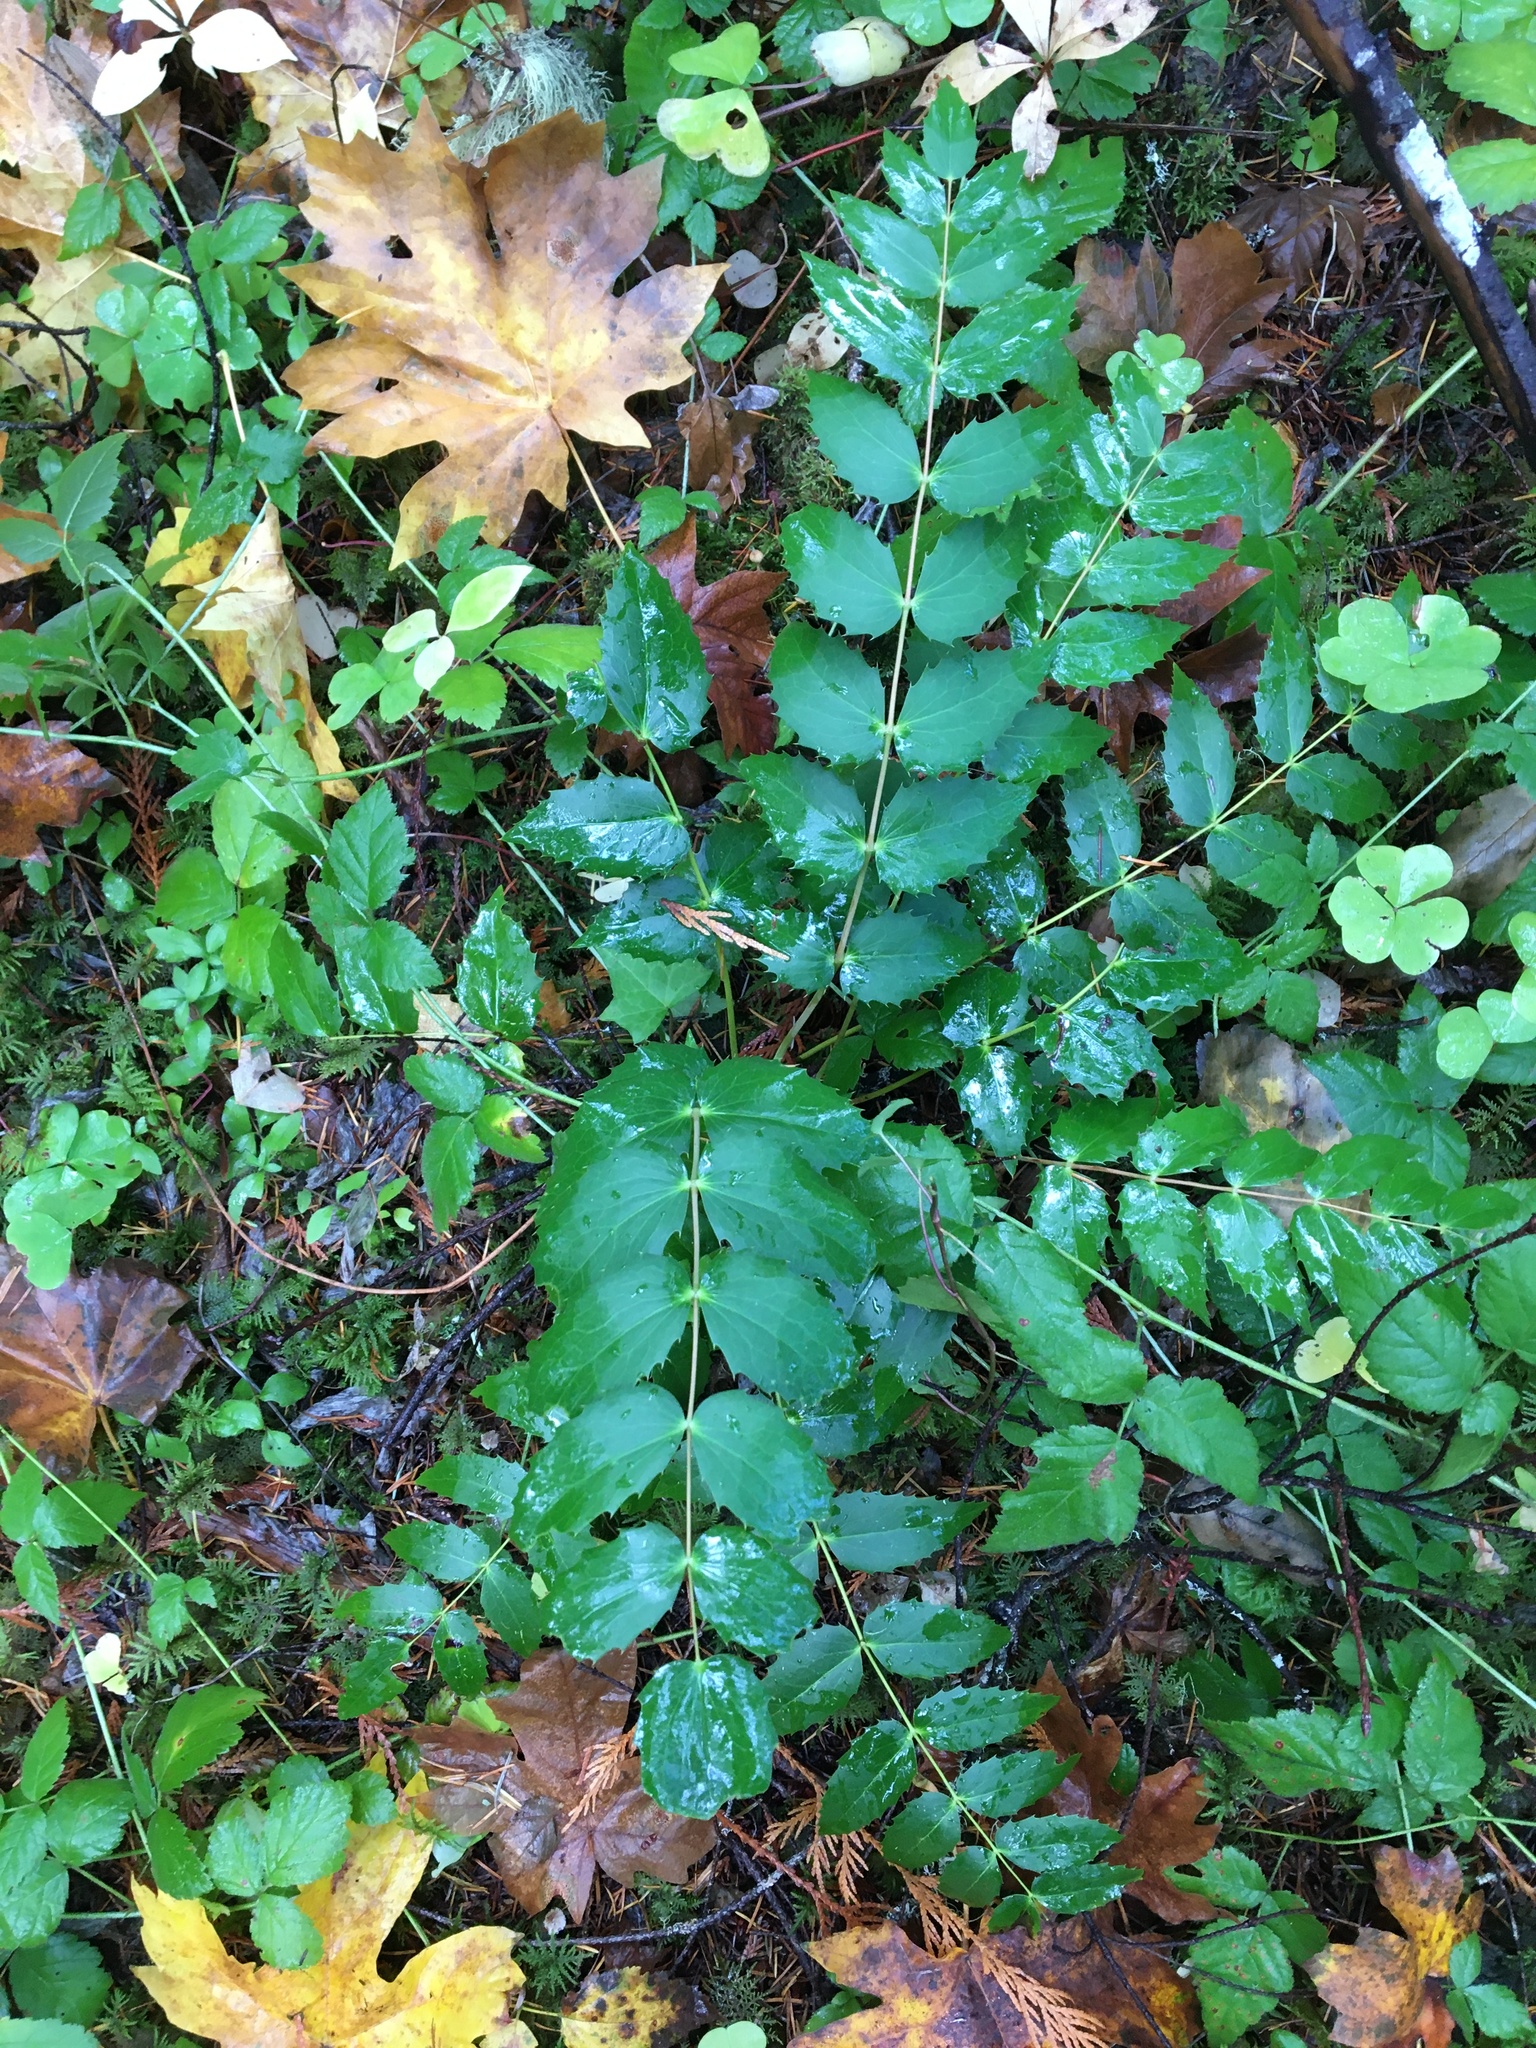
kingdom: Plantae
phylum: Tracheophyta
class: Magnoliopsida
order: Ranunculales
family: Berberidaceae
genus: Mahonia
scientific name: Mahonia nervosa
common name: Cascade oregon-grape
